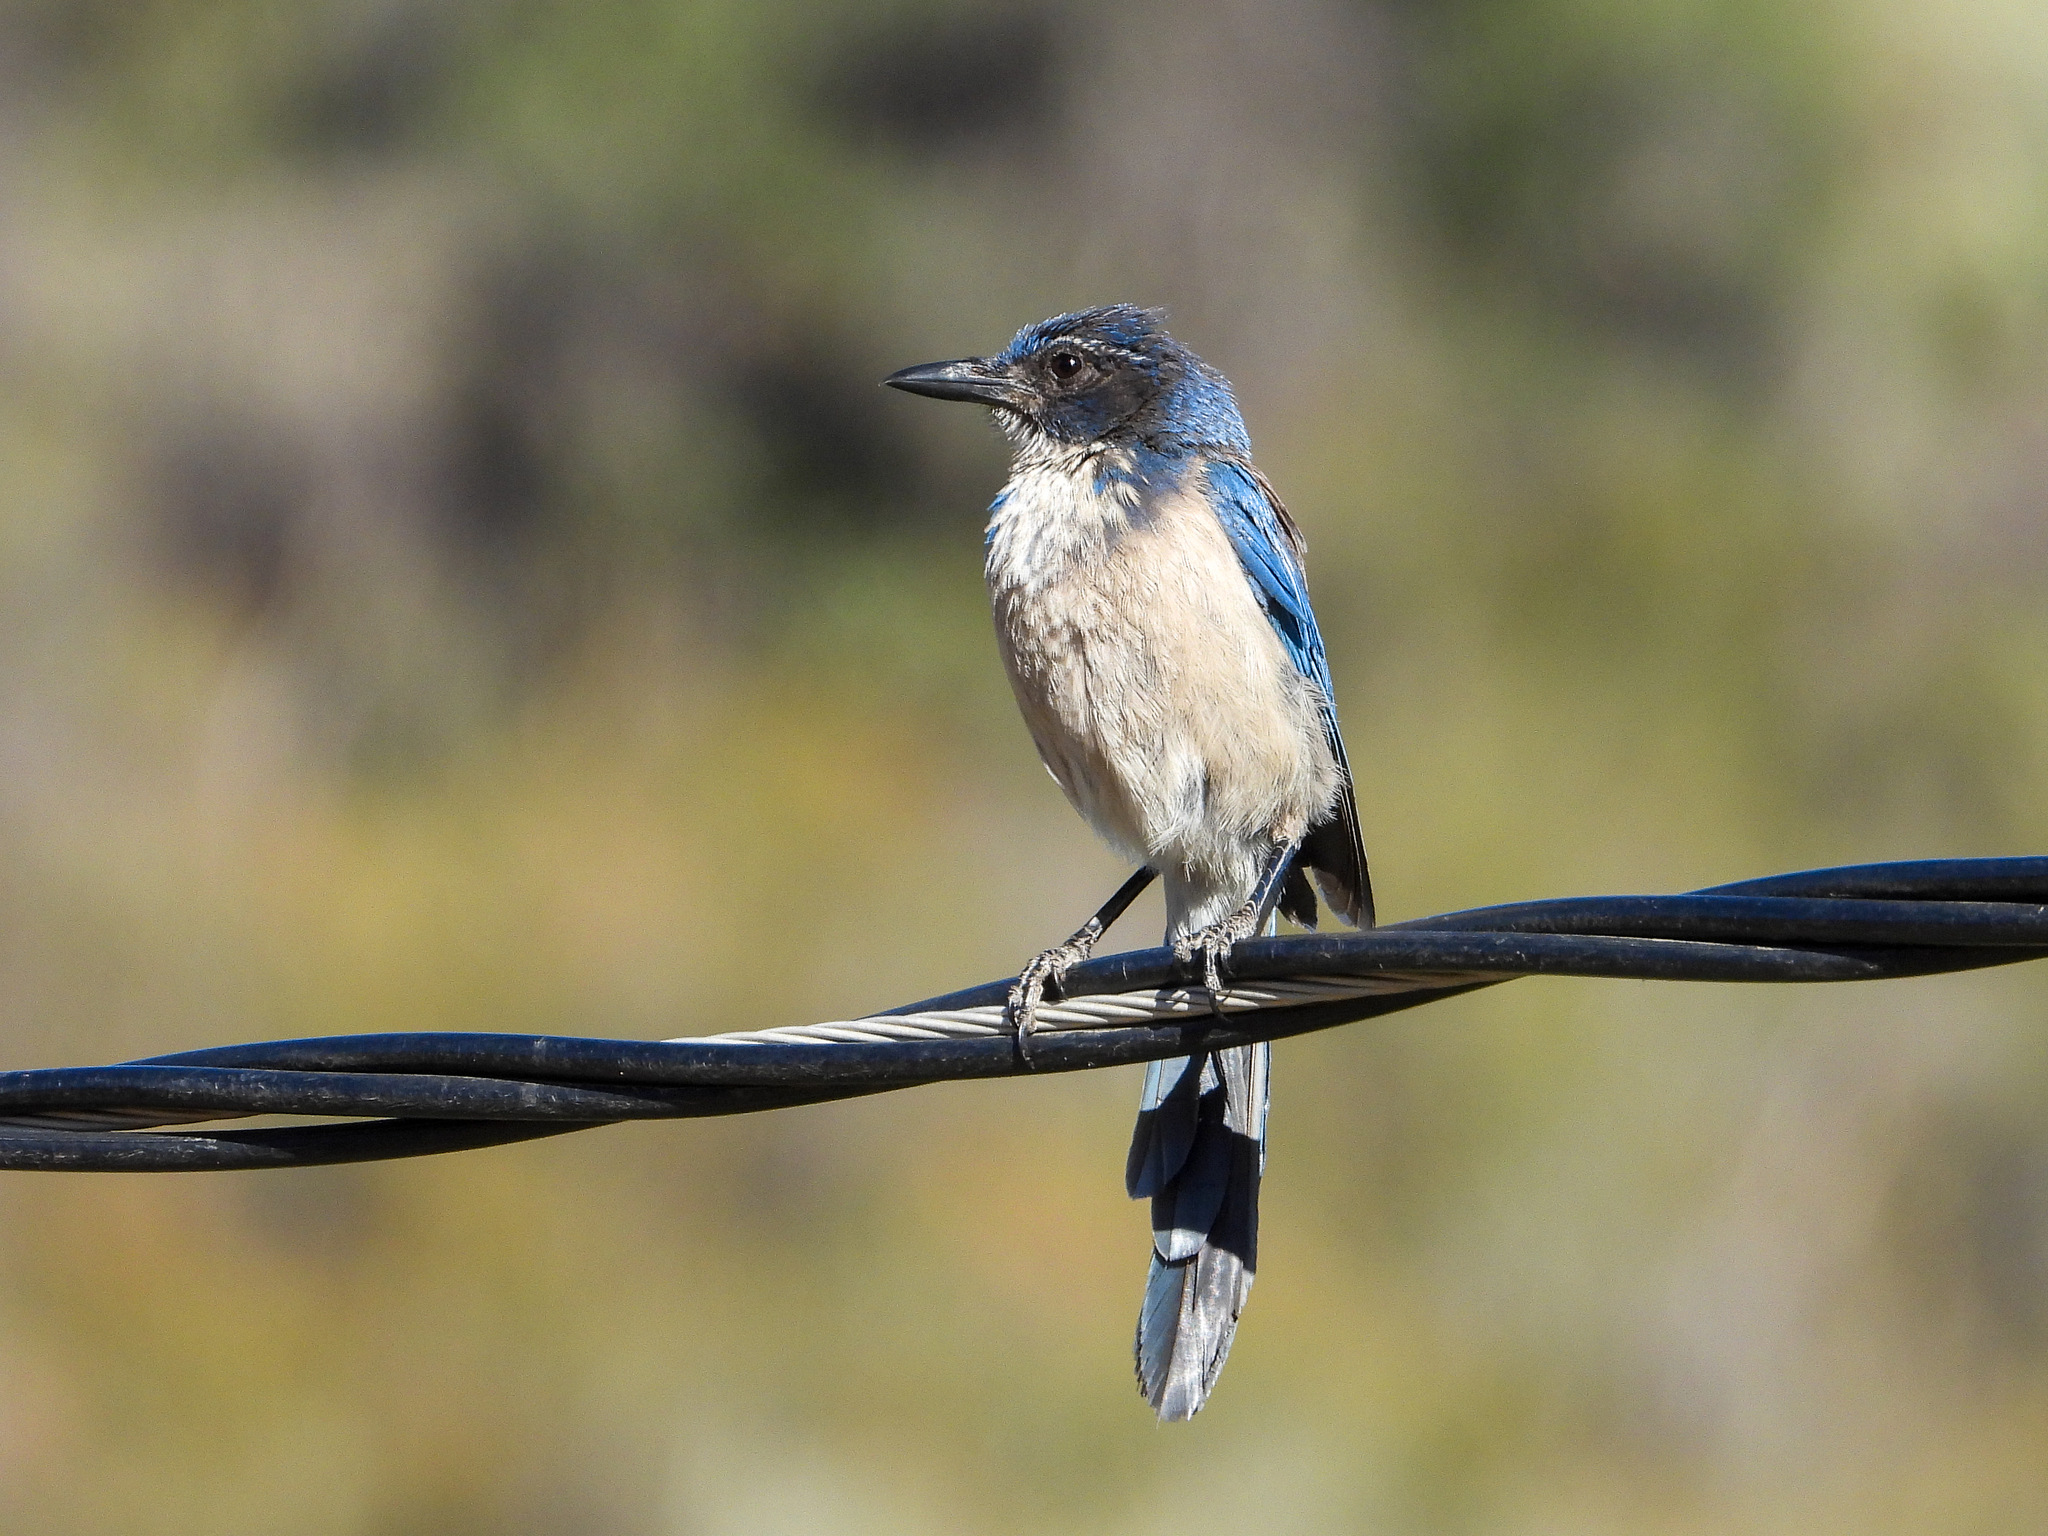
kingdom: Animalia
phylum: Chordata
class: Aves
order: Passeriformes
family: Corvidae
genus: Aphelocoma
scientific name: Aphelocoma californica
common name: California scrub-jay
